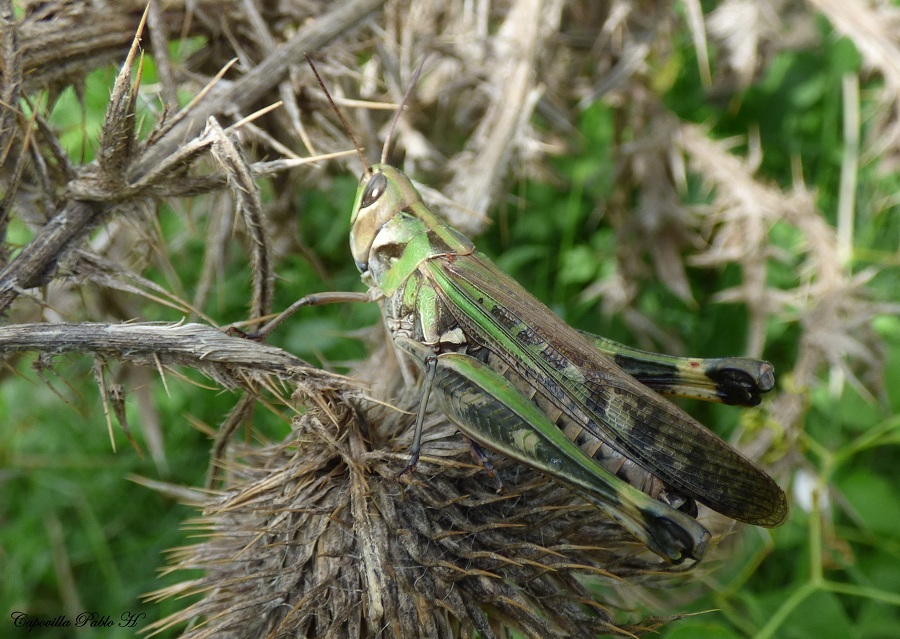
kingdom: Animalia
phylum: Arthropoda
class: Insecta
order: Orthoptera
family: Acrididae
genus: Rhammatocerus
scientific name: Rhammatocerus pictus
